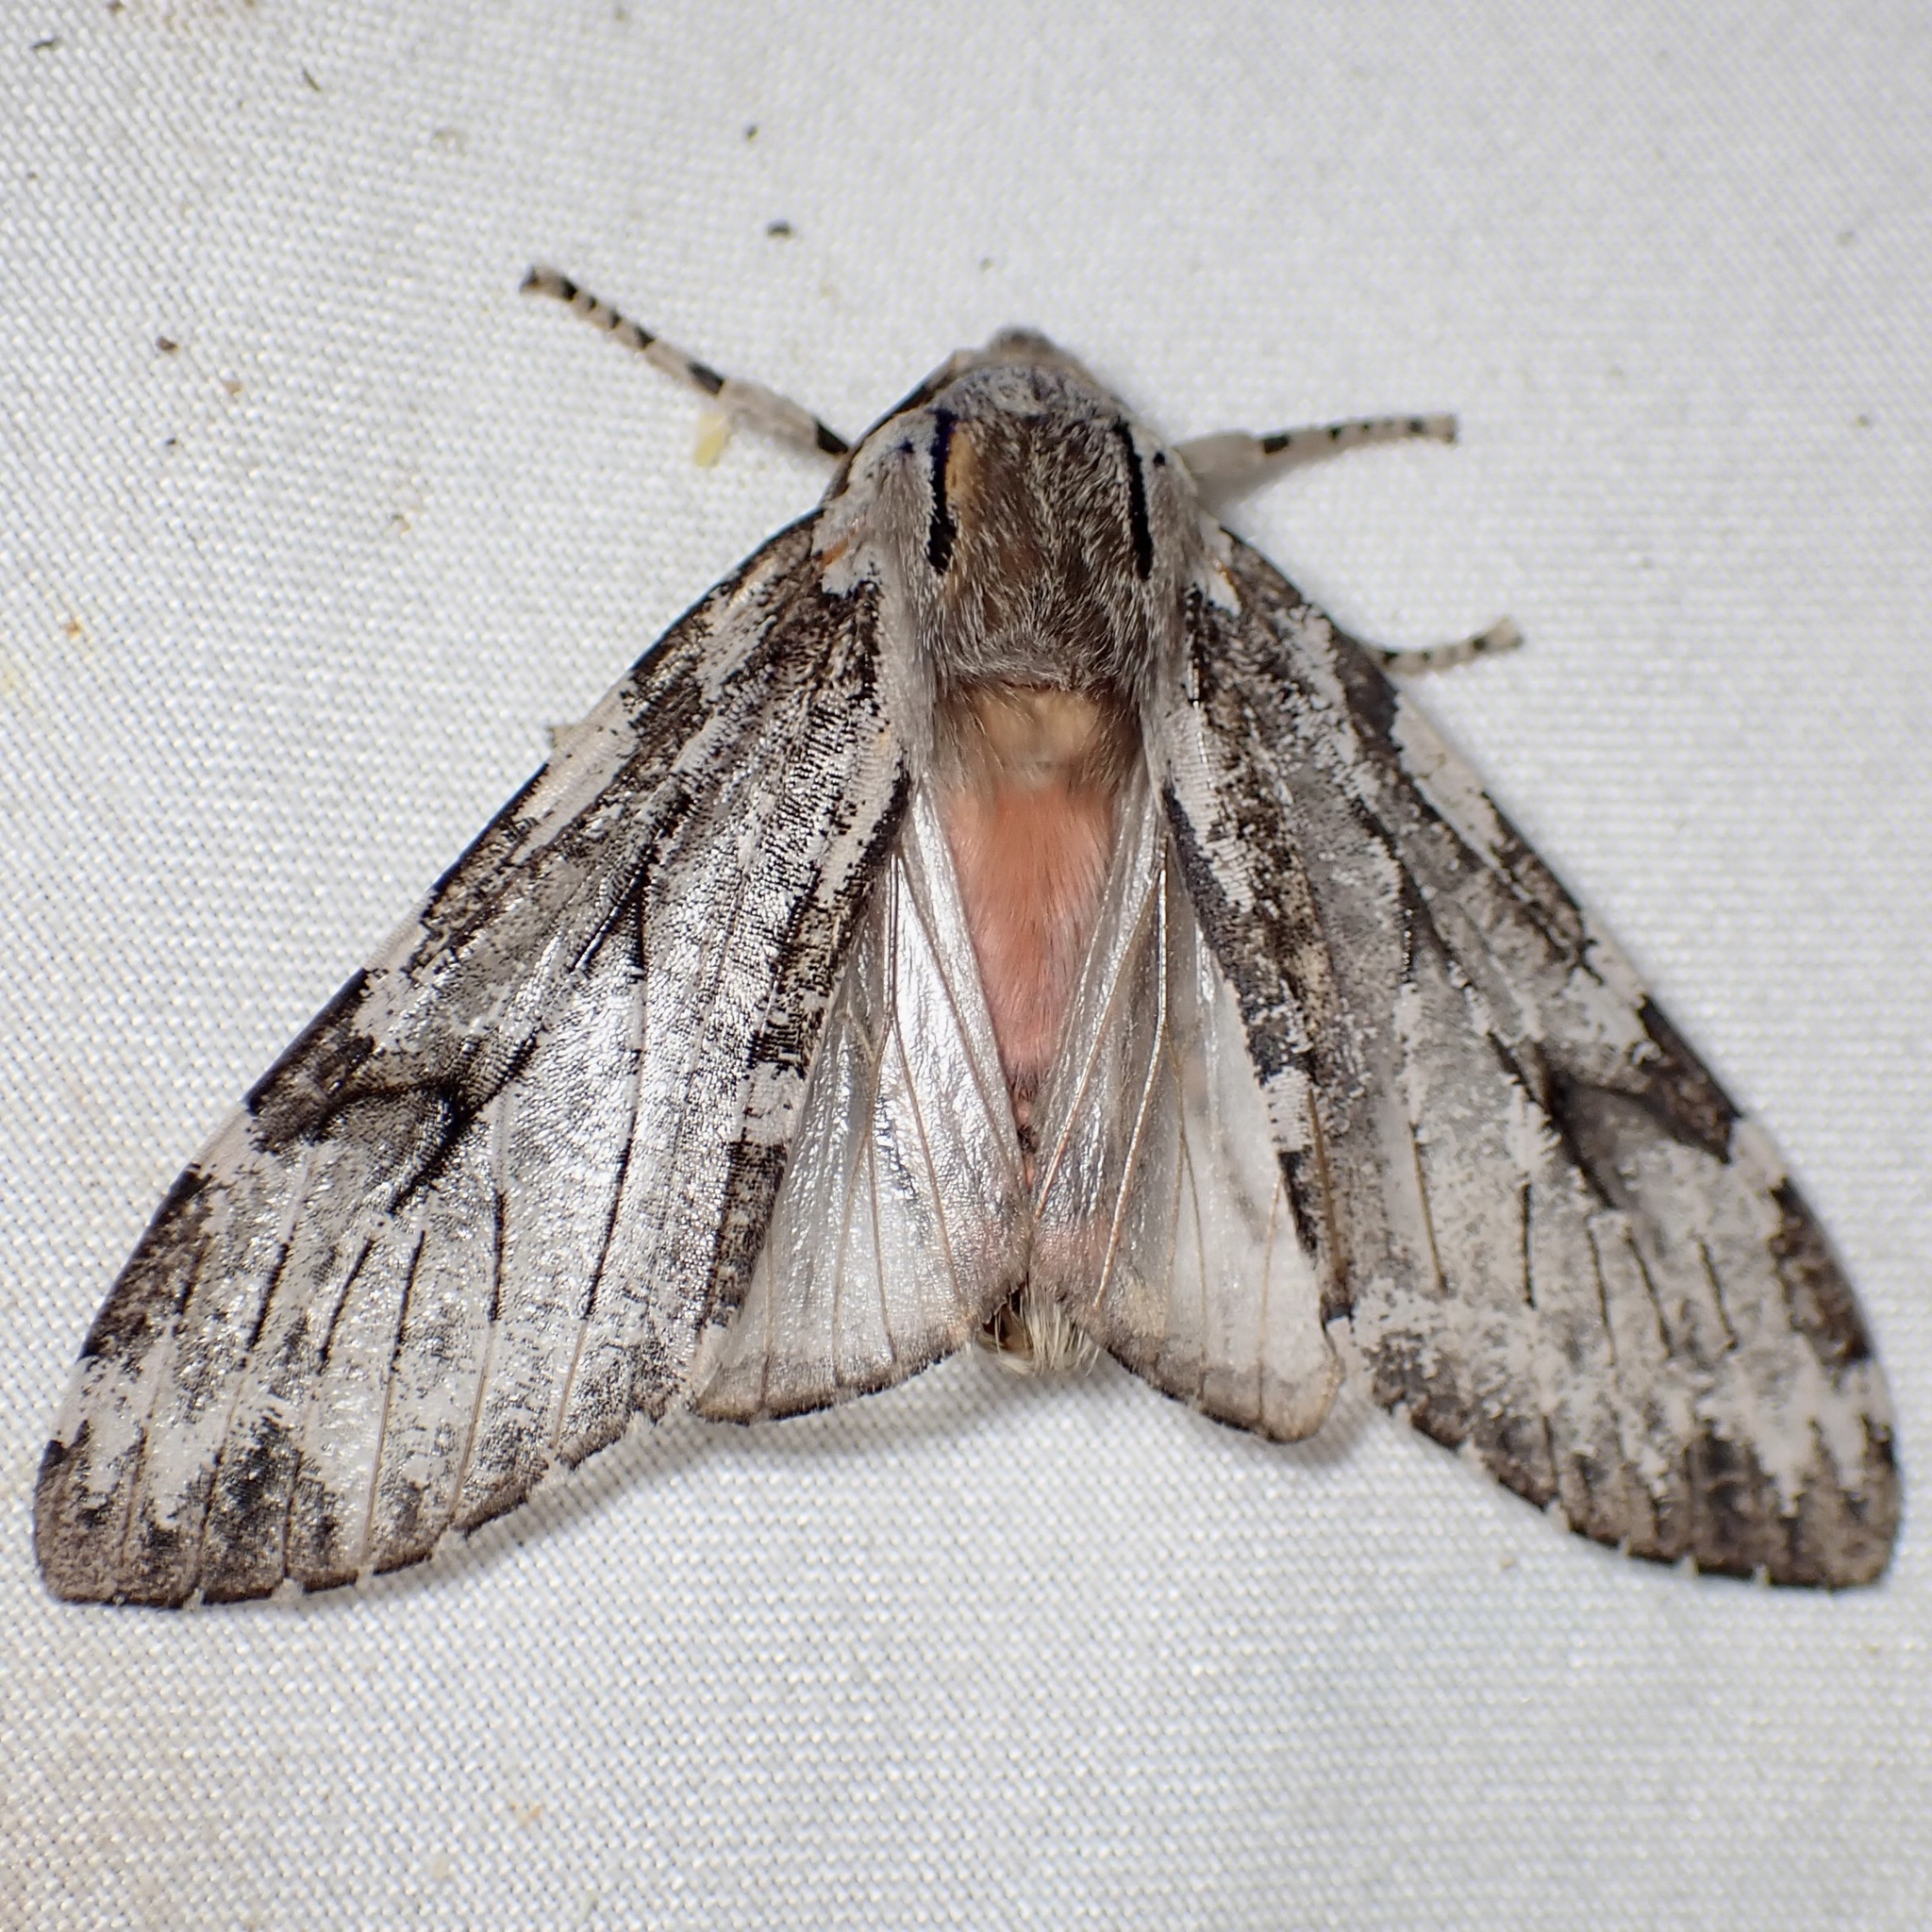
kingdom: Animalia
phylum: Arthropoda
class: Insecta
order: Lepidoptera
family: Erebidae
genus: Hemihyalea
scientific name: Hemihyalea splendens
